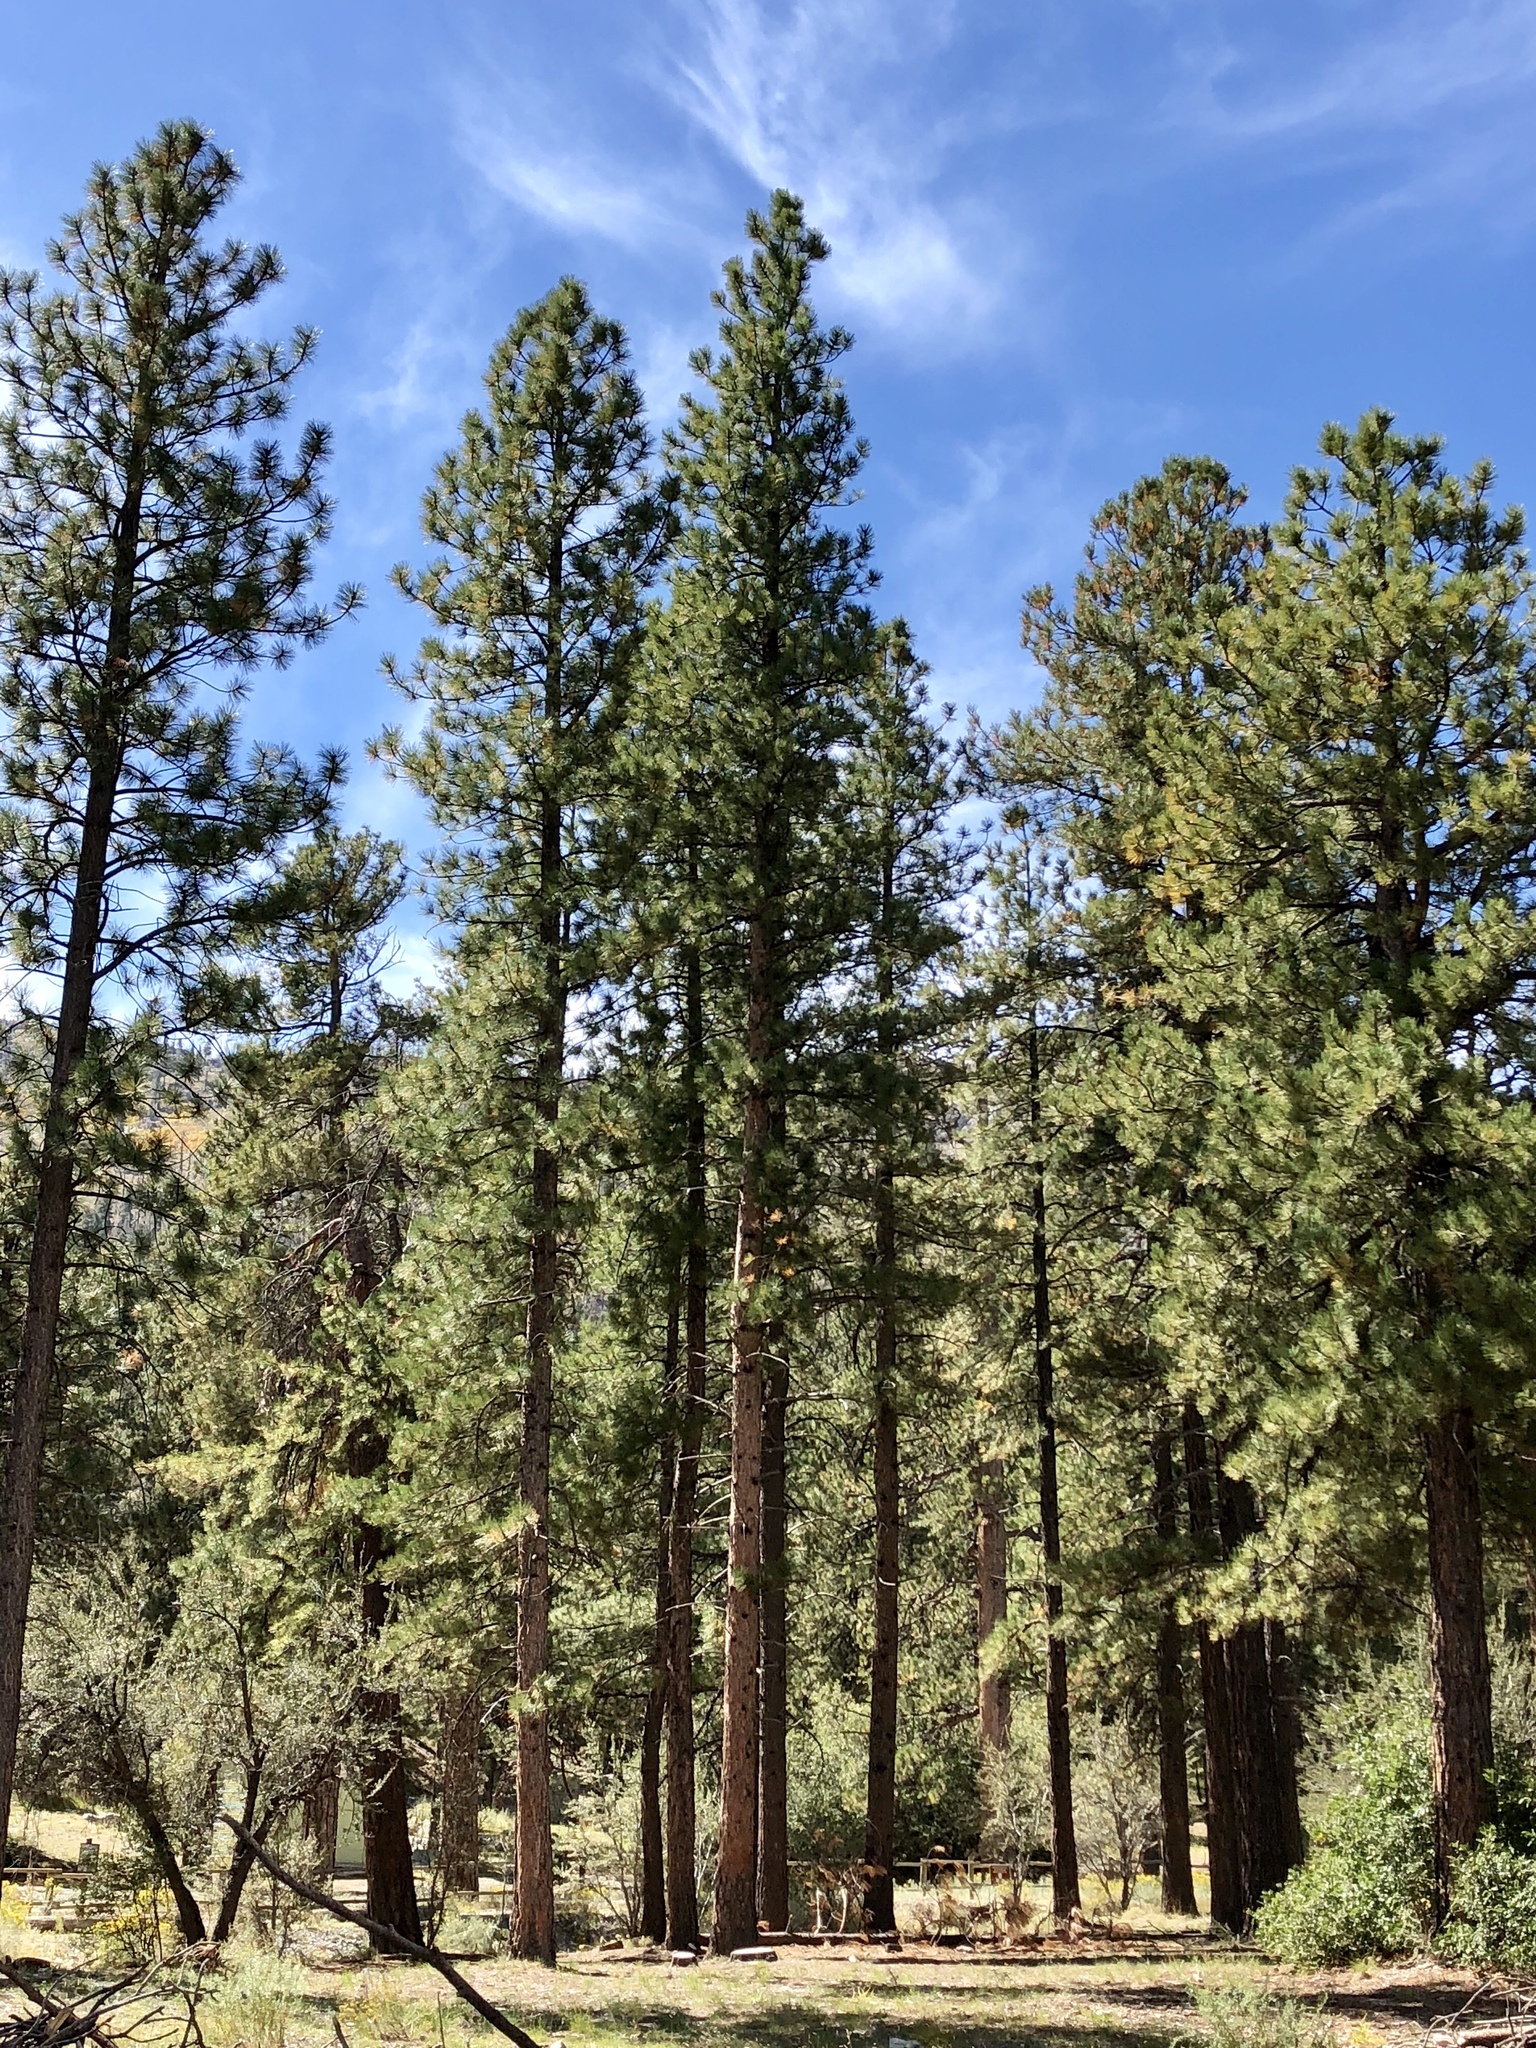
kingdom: Plantae
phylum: Tracheophyta
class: Pinopsida
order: Pinales
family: Pinaceae
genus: Pinus
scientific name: Pinus ponderosa
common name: Western yellow-pine
